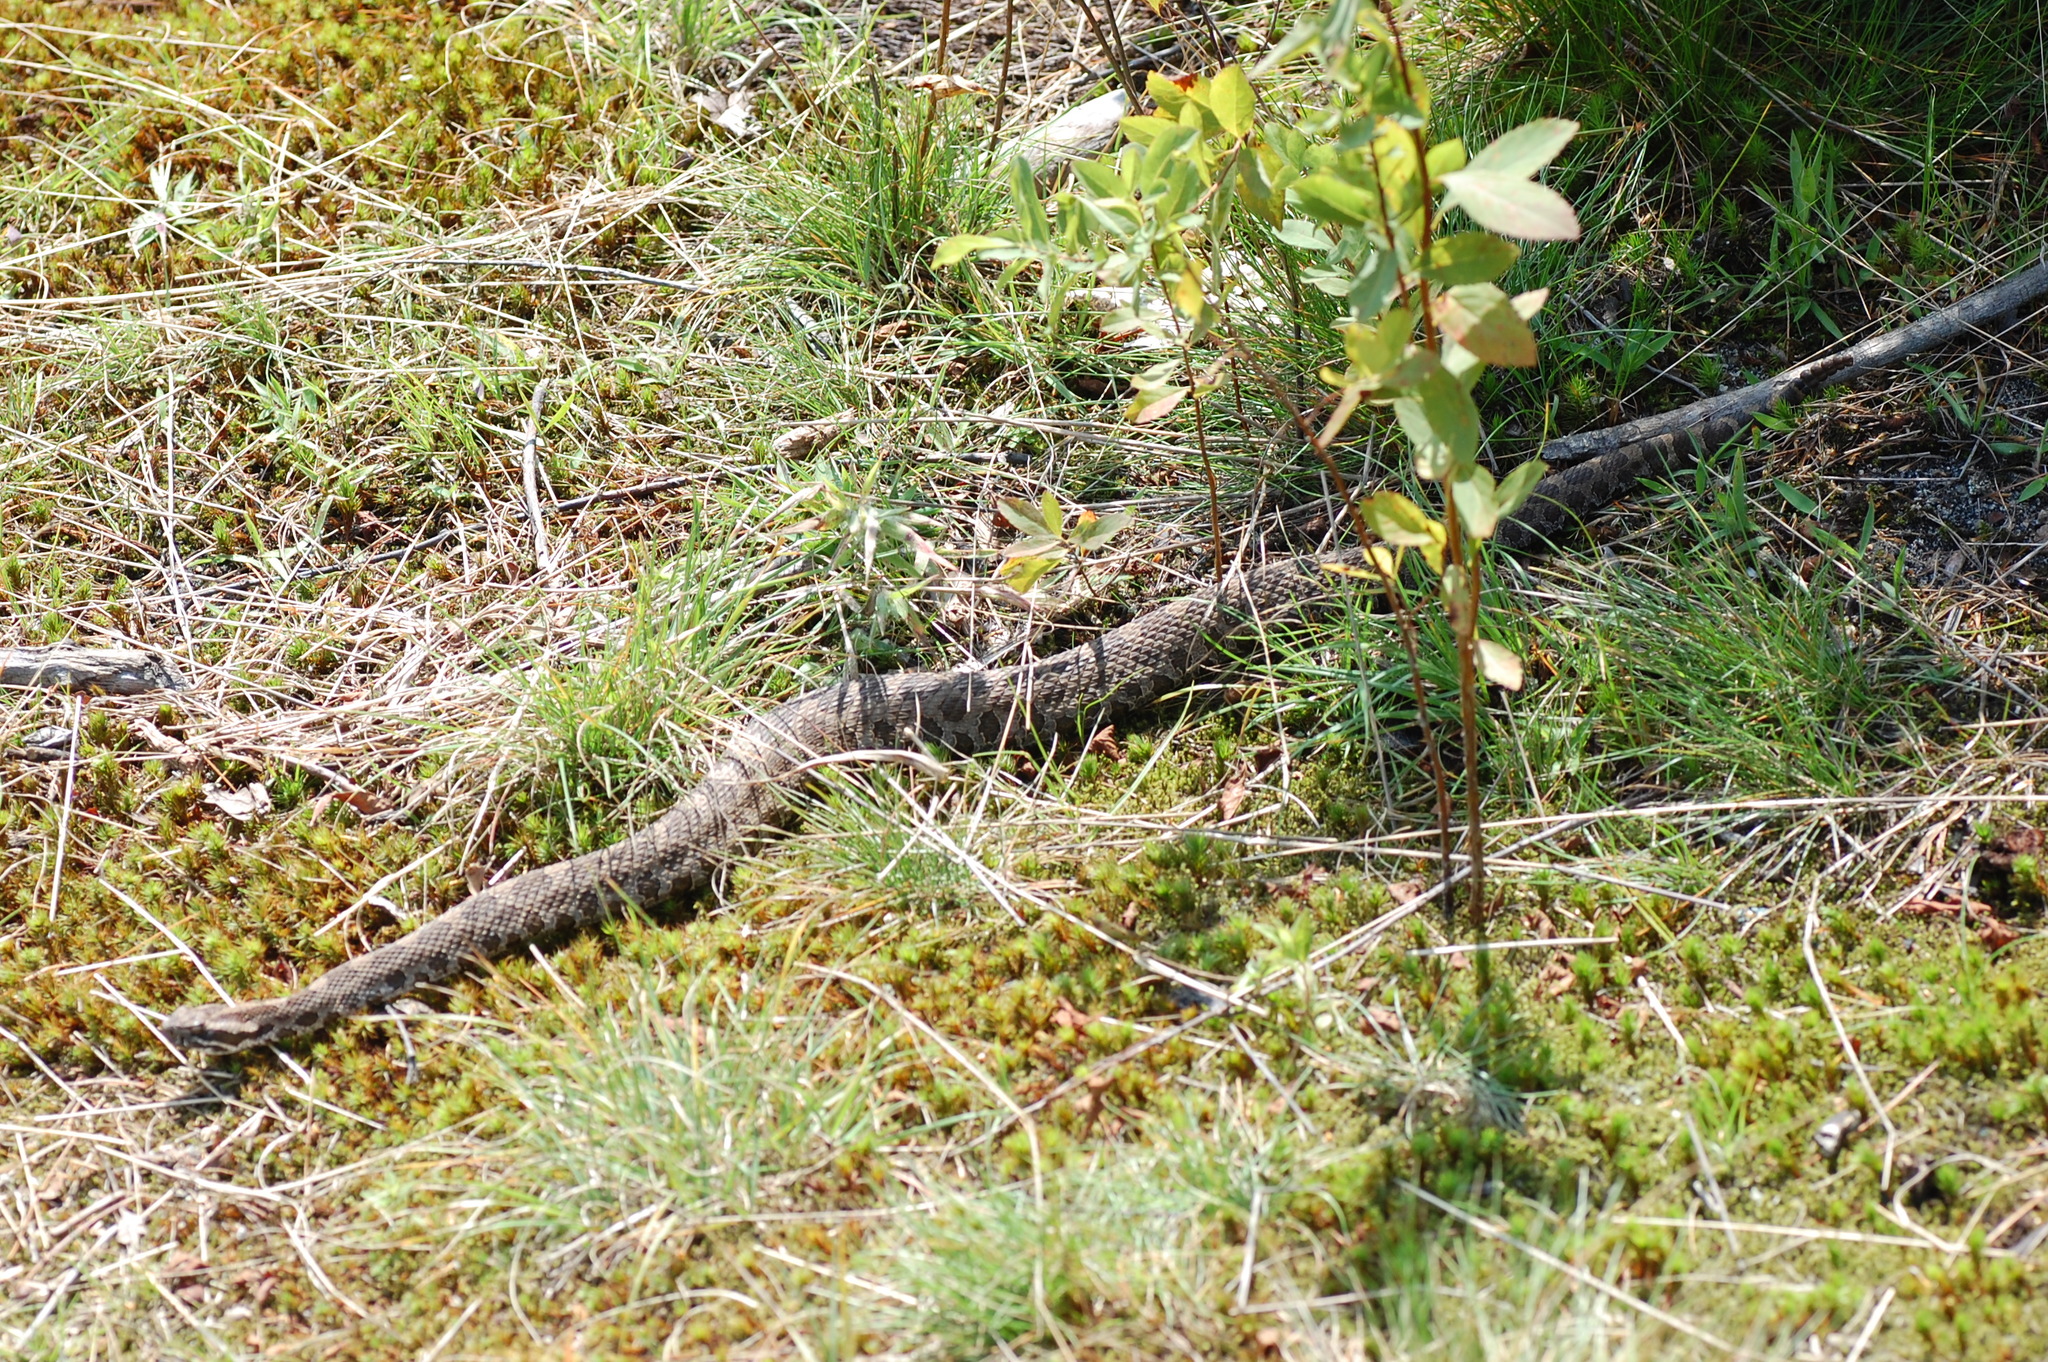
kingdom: Animalia
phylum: Chordata
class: Squamata
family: Viperidae
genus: Sistrurus
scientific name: Sistrurus catenatus
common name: Massasauga
